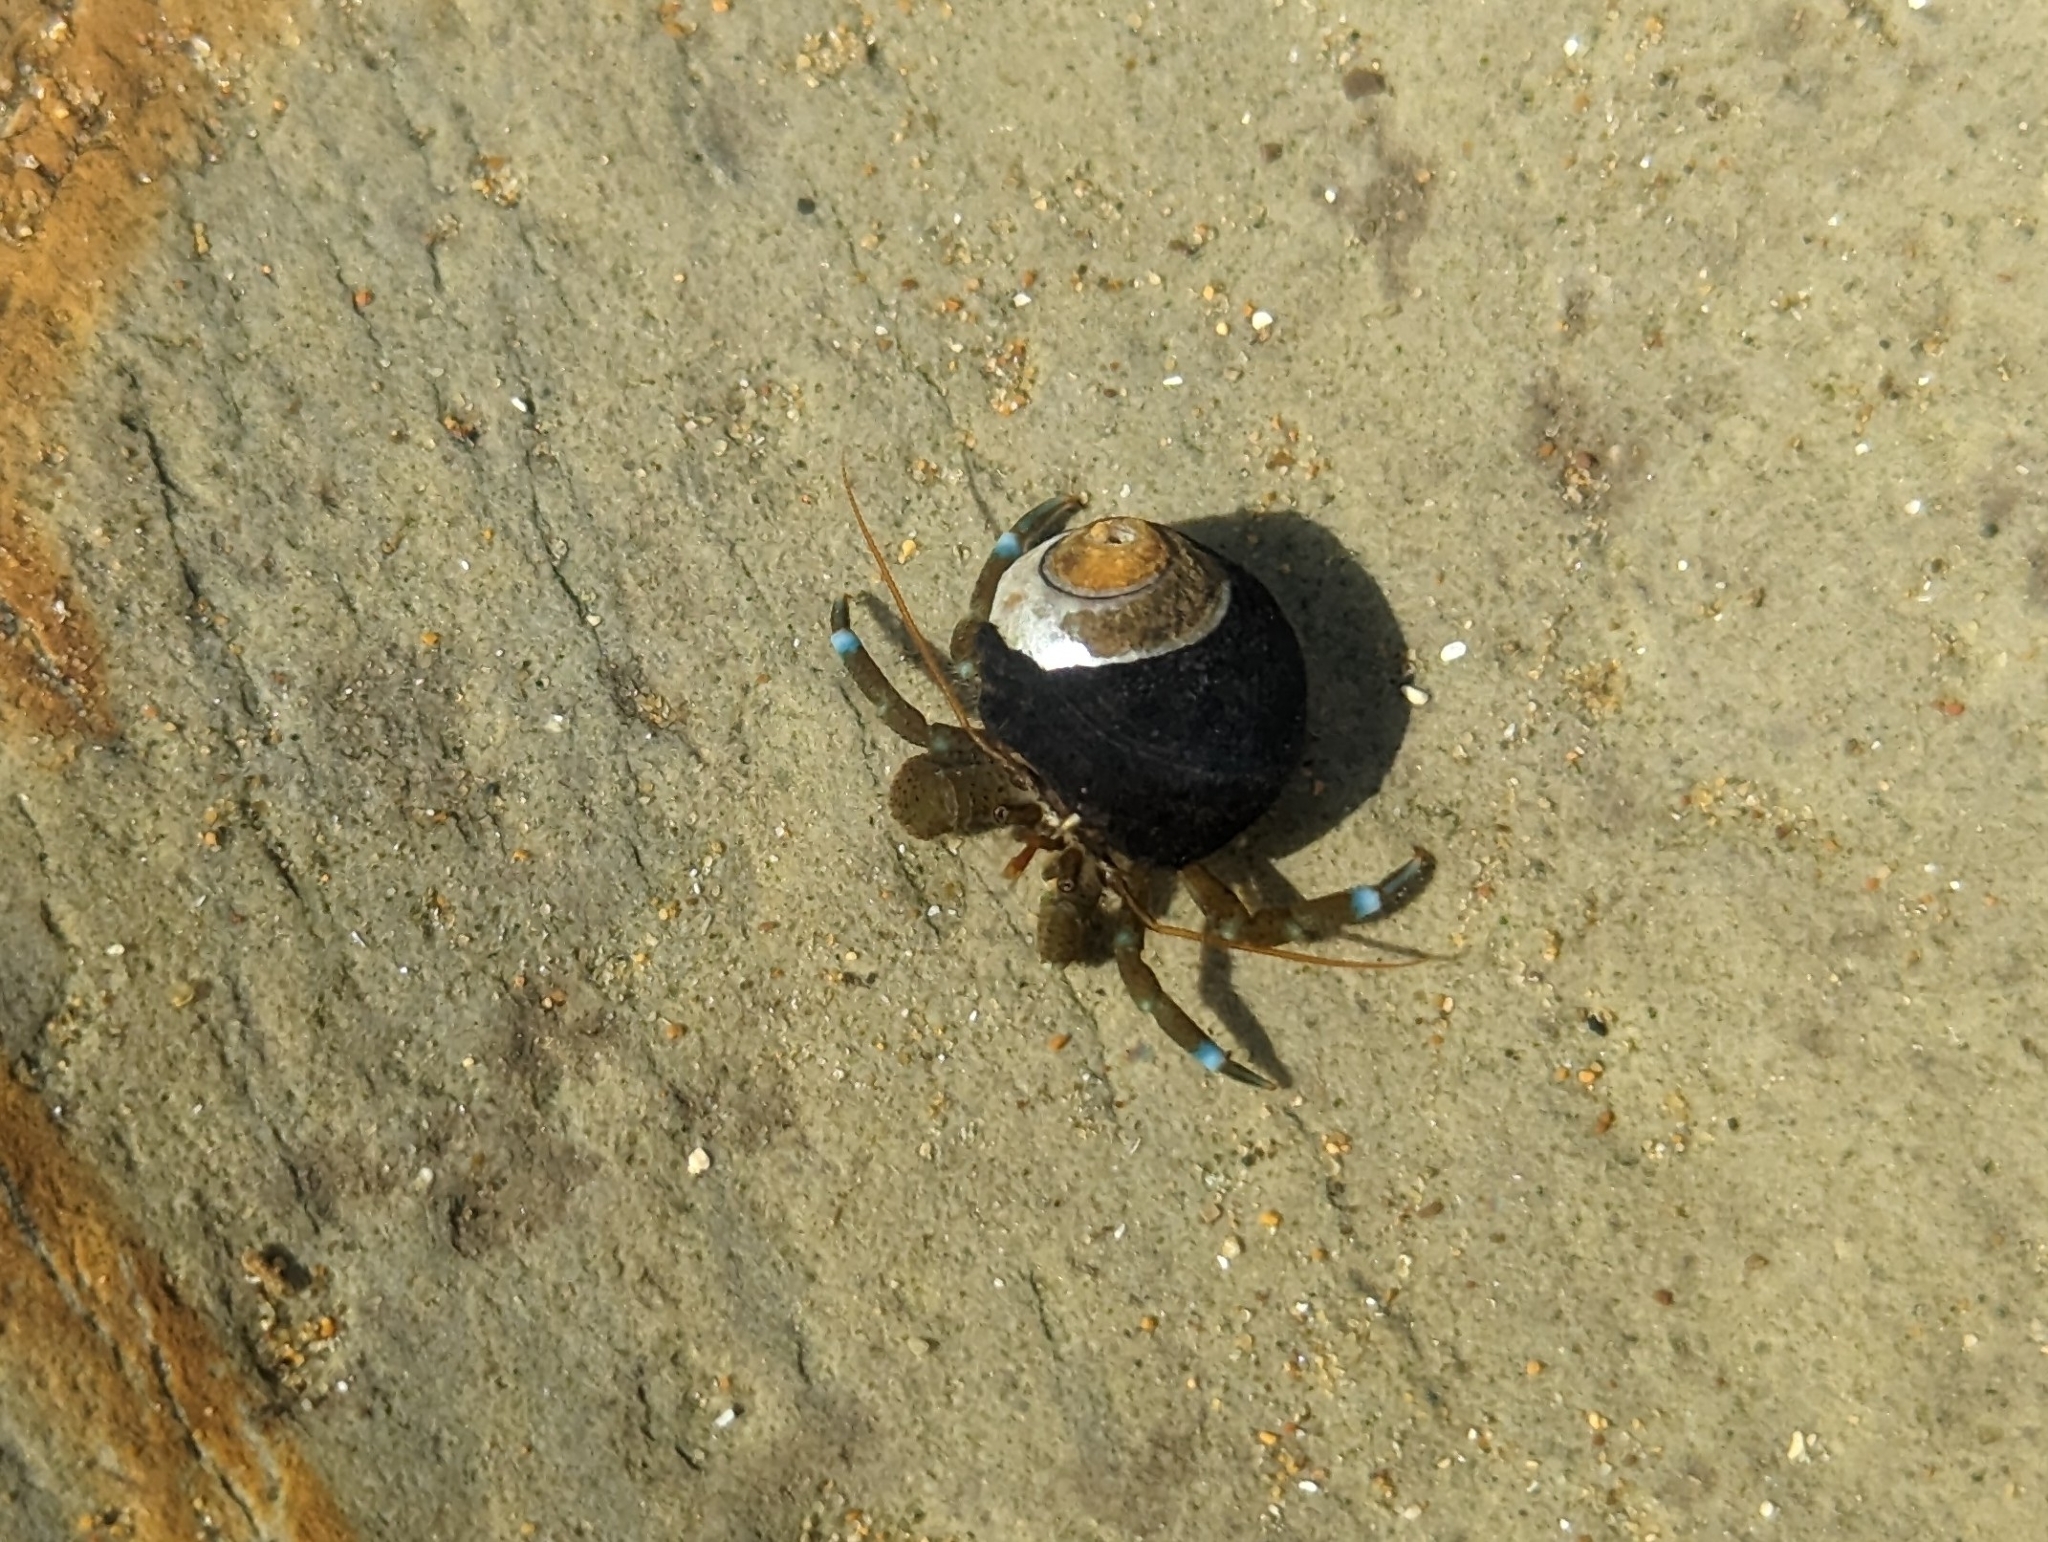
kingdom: Animalia
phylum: Arthropoda
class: Malacostraca
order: Decapoda
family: Paguridae
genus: Pagurus
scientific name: Pagurus samuelis
